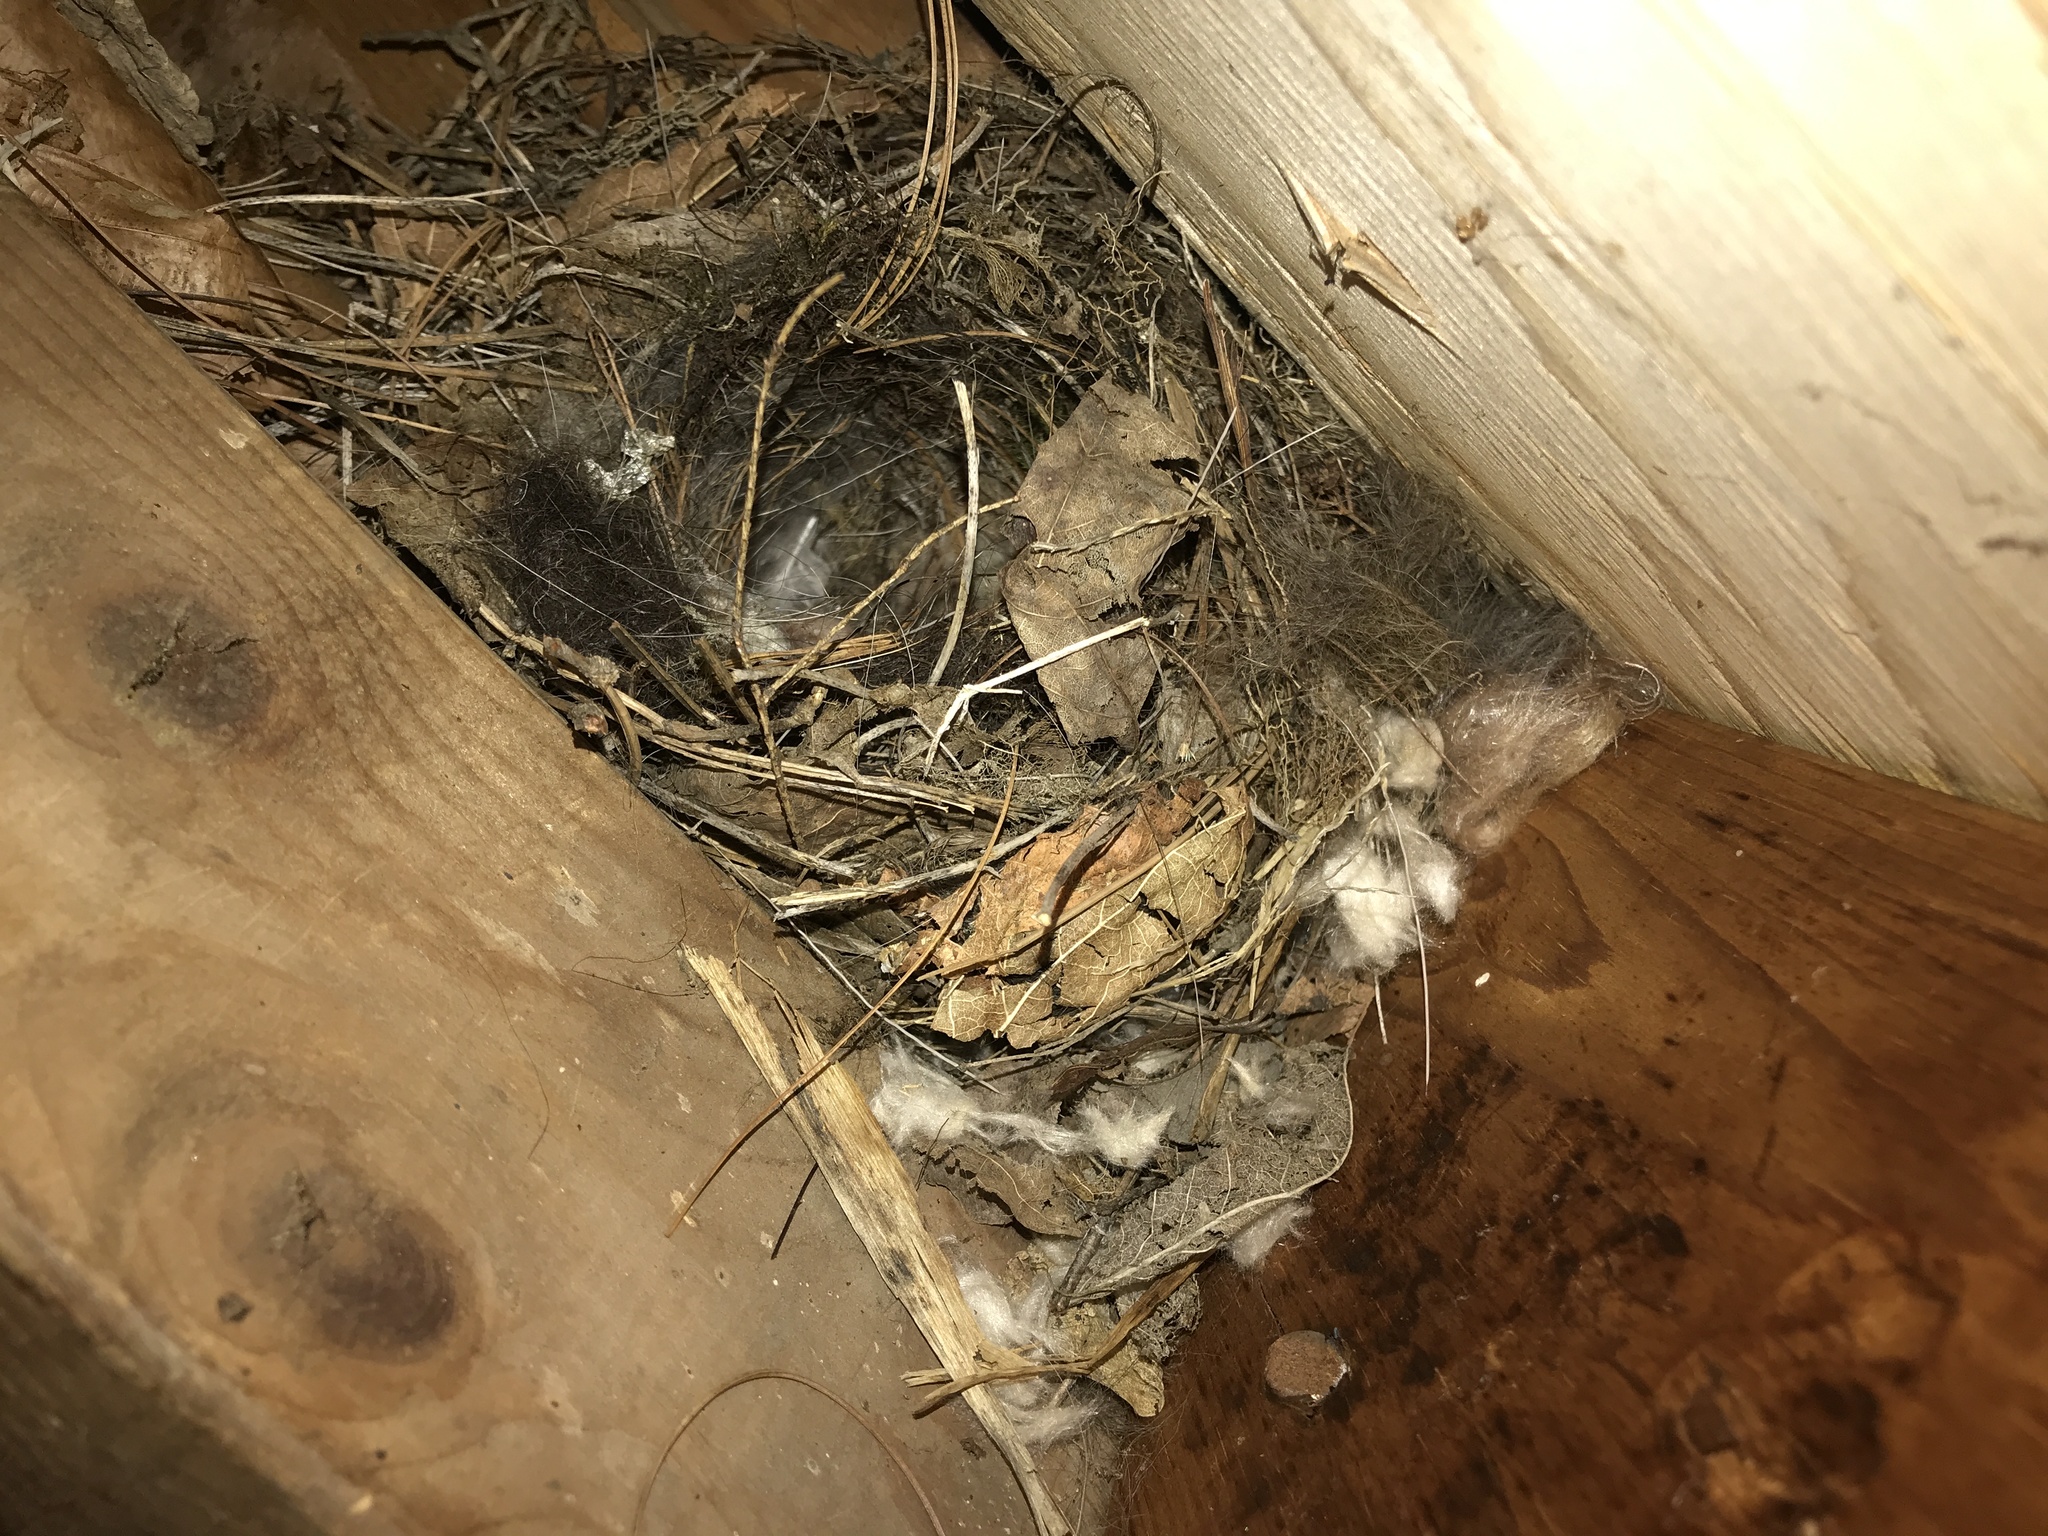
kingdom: Animalia
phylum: Chordata
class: Aves
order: Passeriformes
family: Troglodytidae
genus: Thryothorus
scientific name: Thryothorus ludovicianus
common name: Carolina wren
